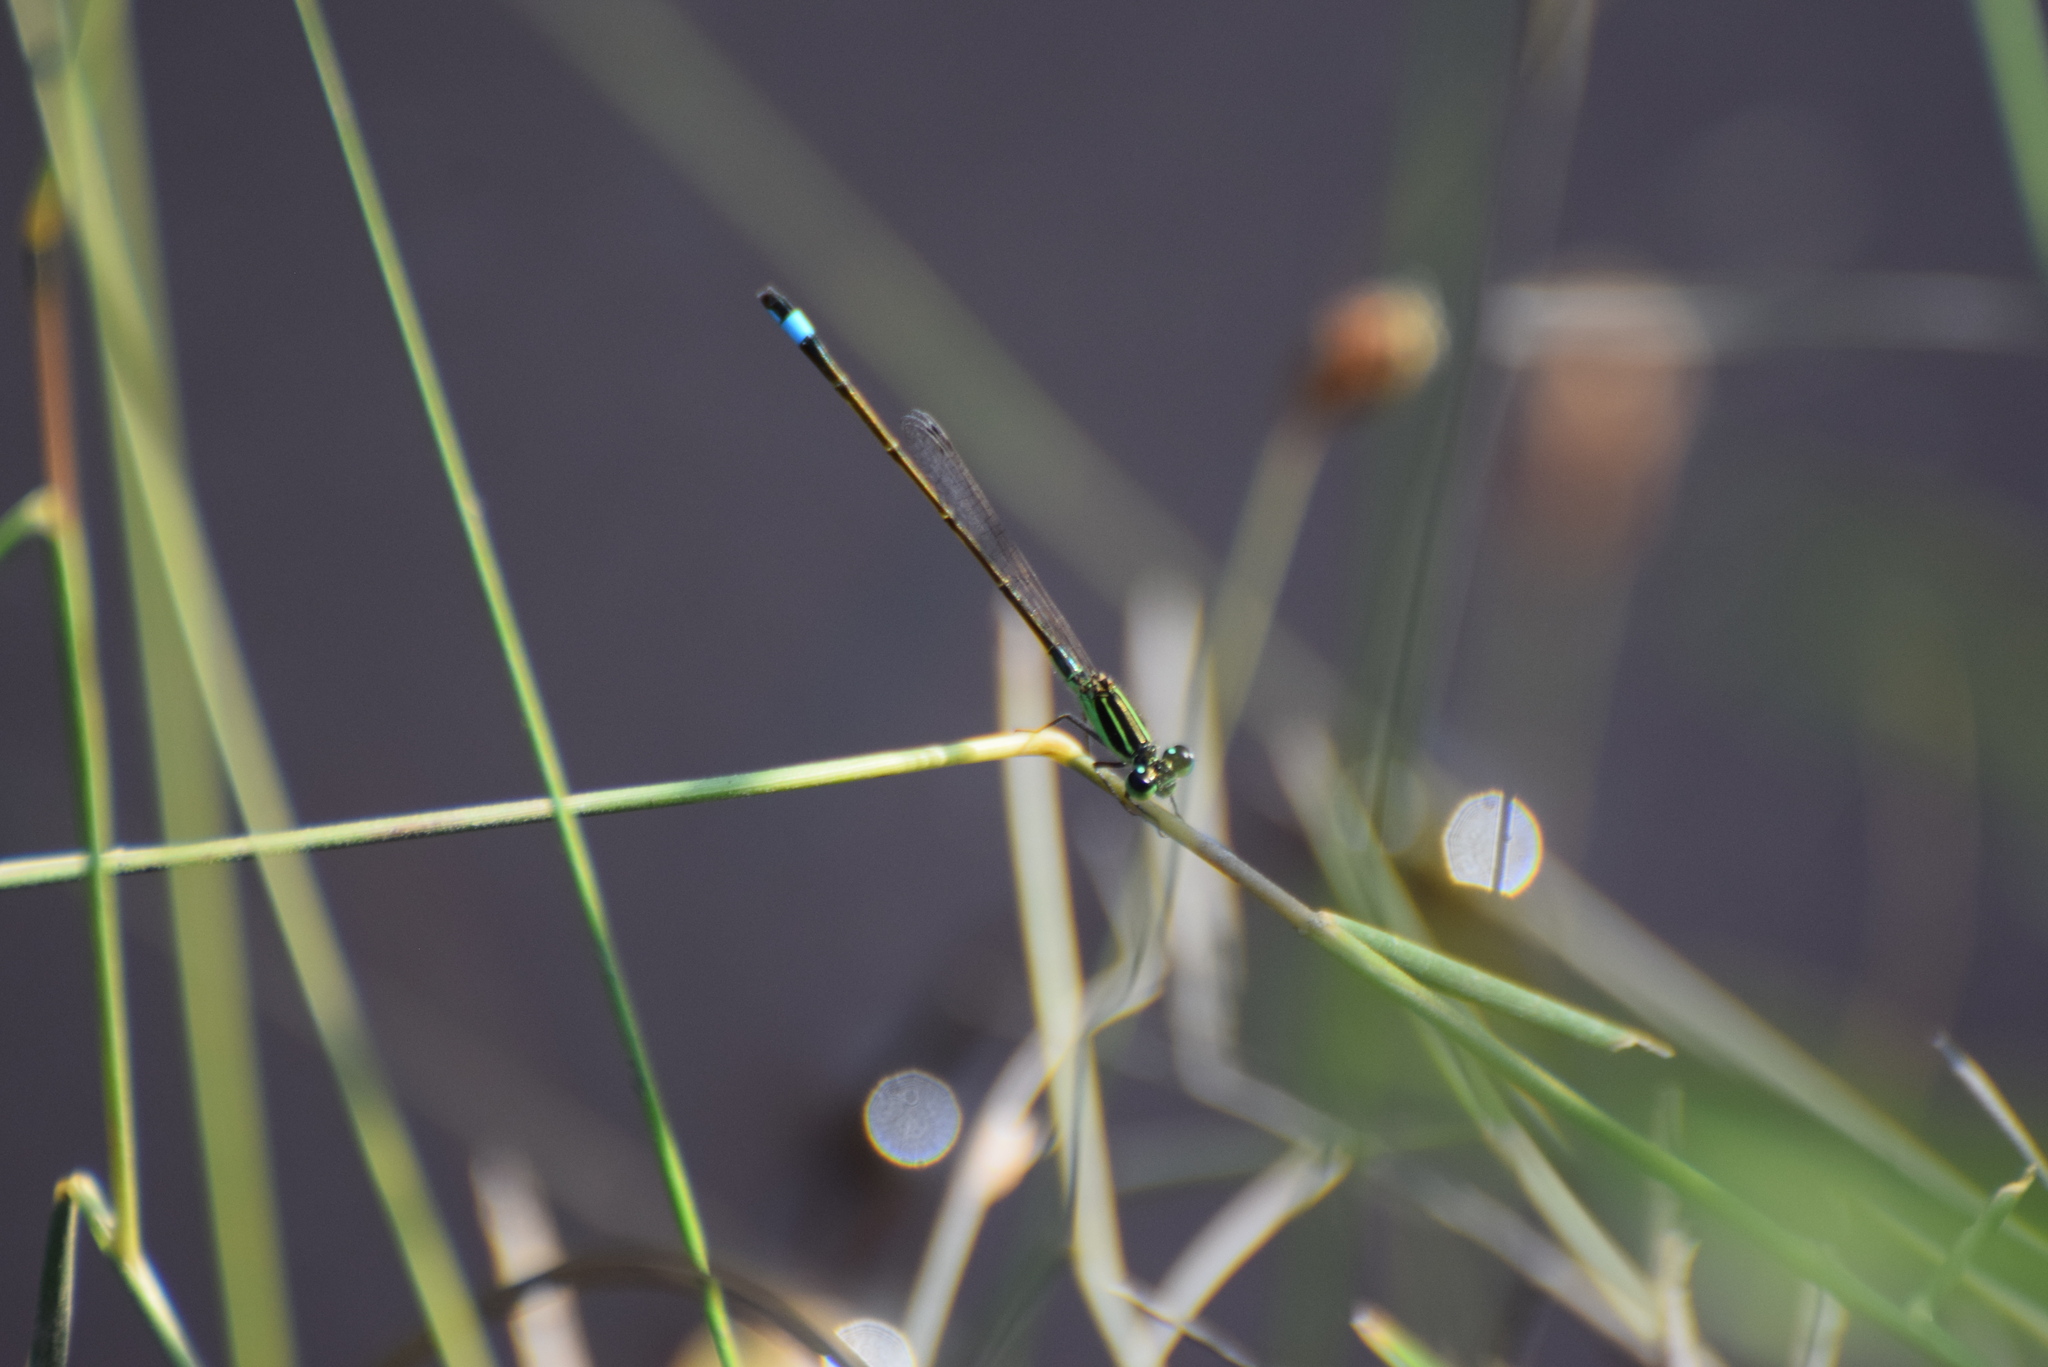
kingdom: Animalia
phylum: Arthropoda
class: Insecta
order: Odonata
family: Coenagrionidae
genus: Ischnura
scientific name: Ischnura ramburii
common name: Rambur's forktail
